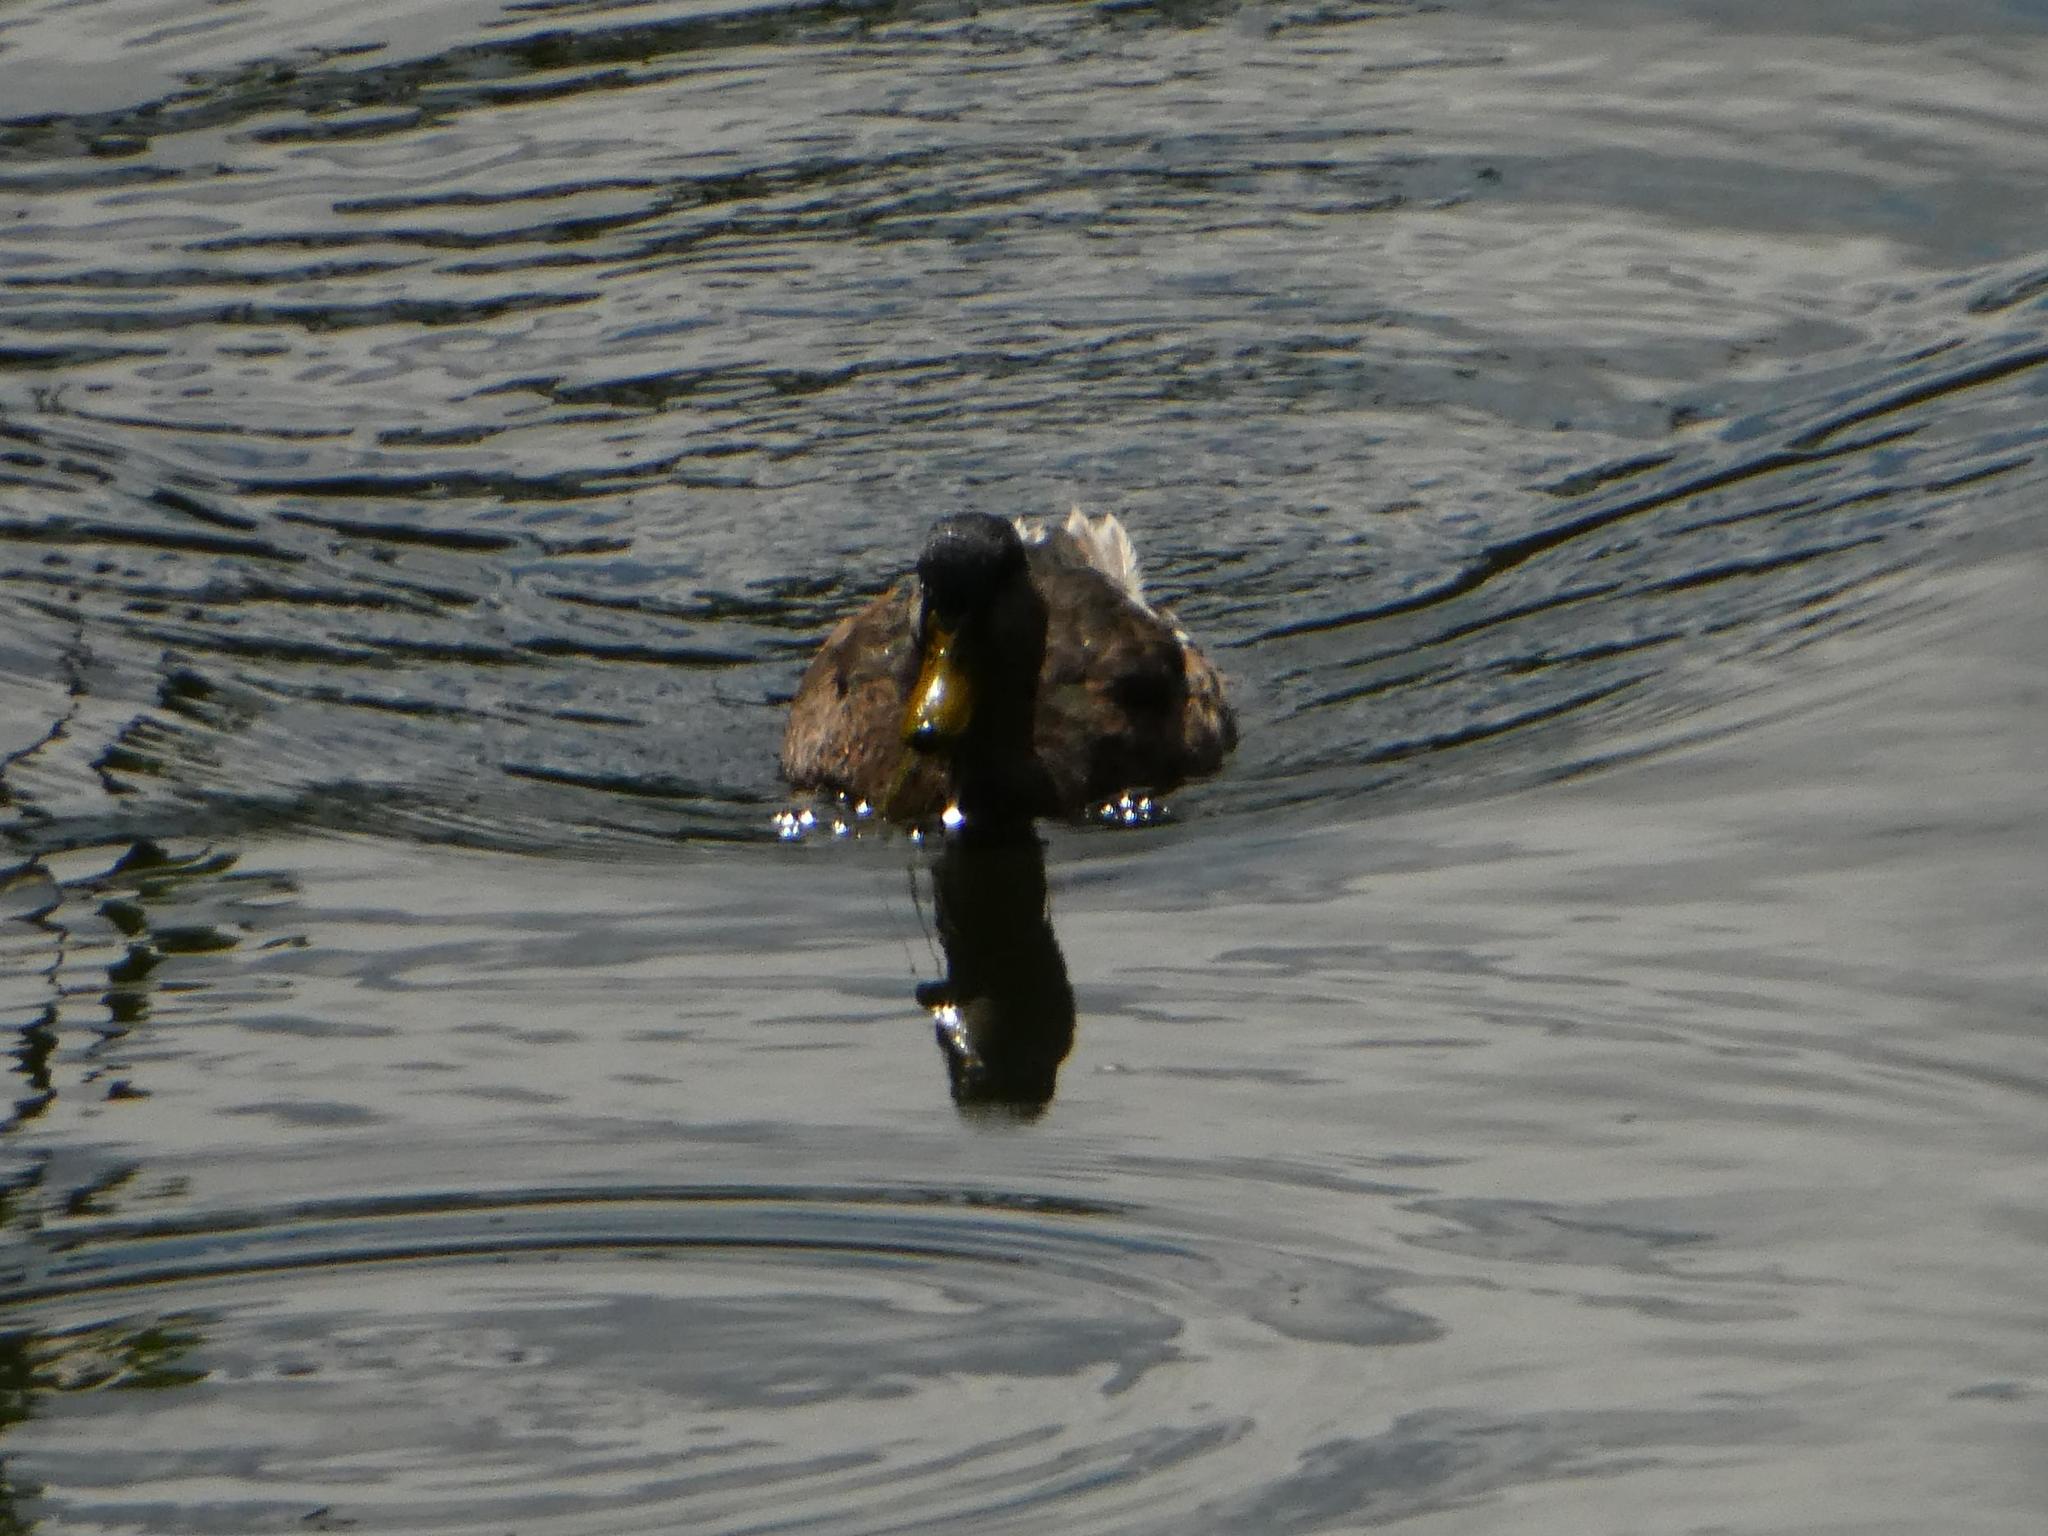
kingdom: Animalia
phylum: Chordata
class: Aves
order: Anseriformes
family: Anatidae
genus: Anas
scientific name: Anas platyrhynchos
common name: Mallard
